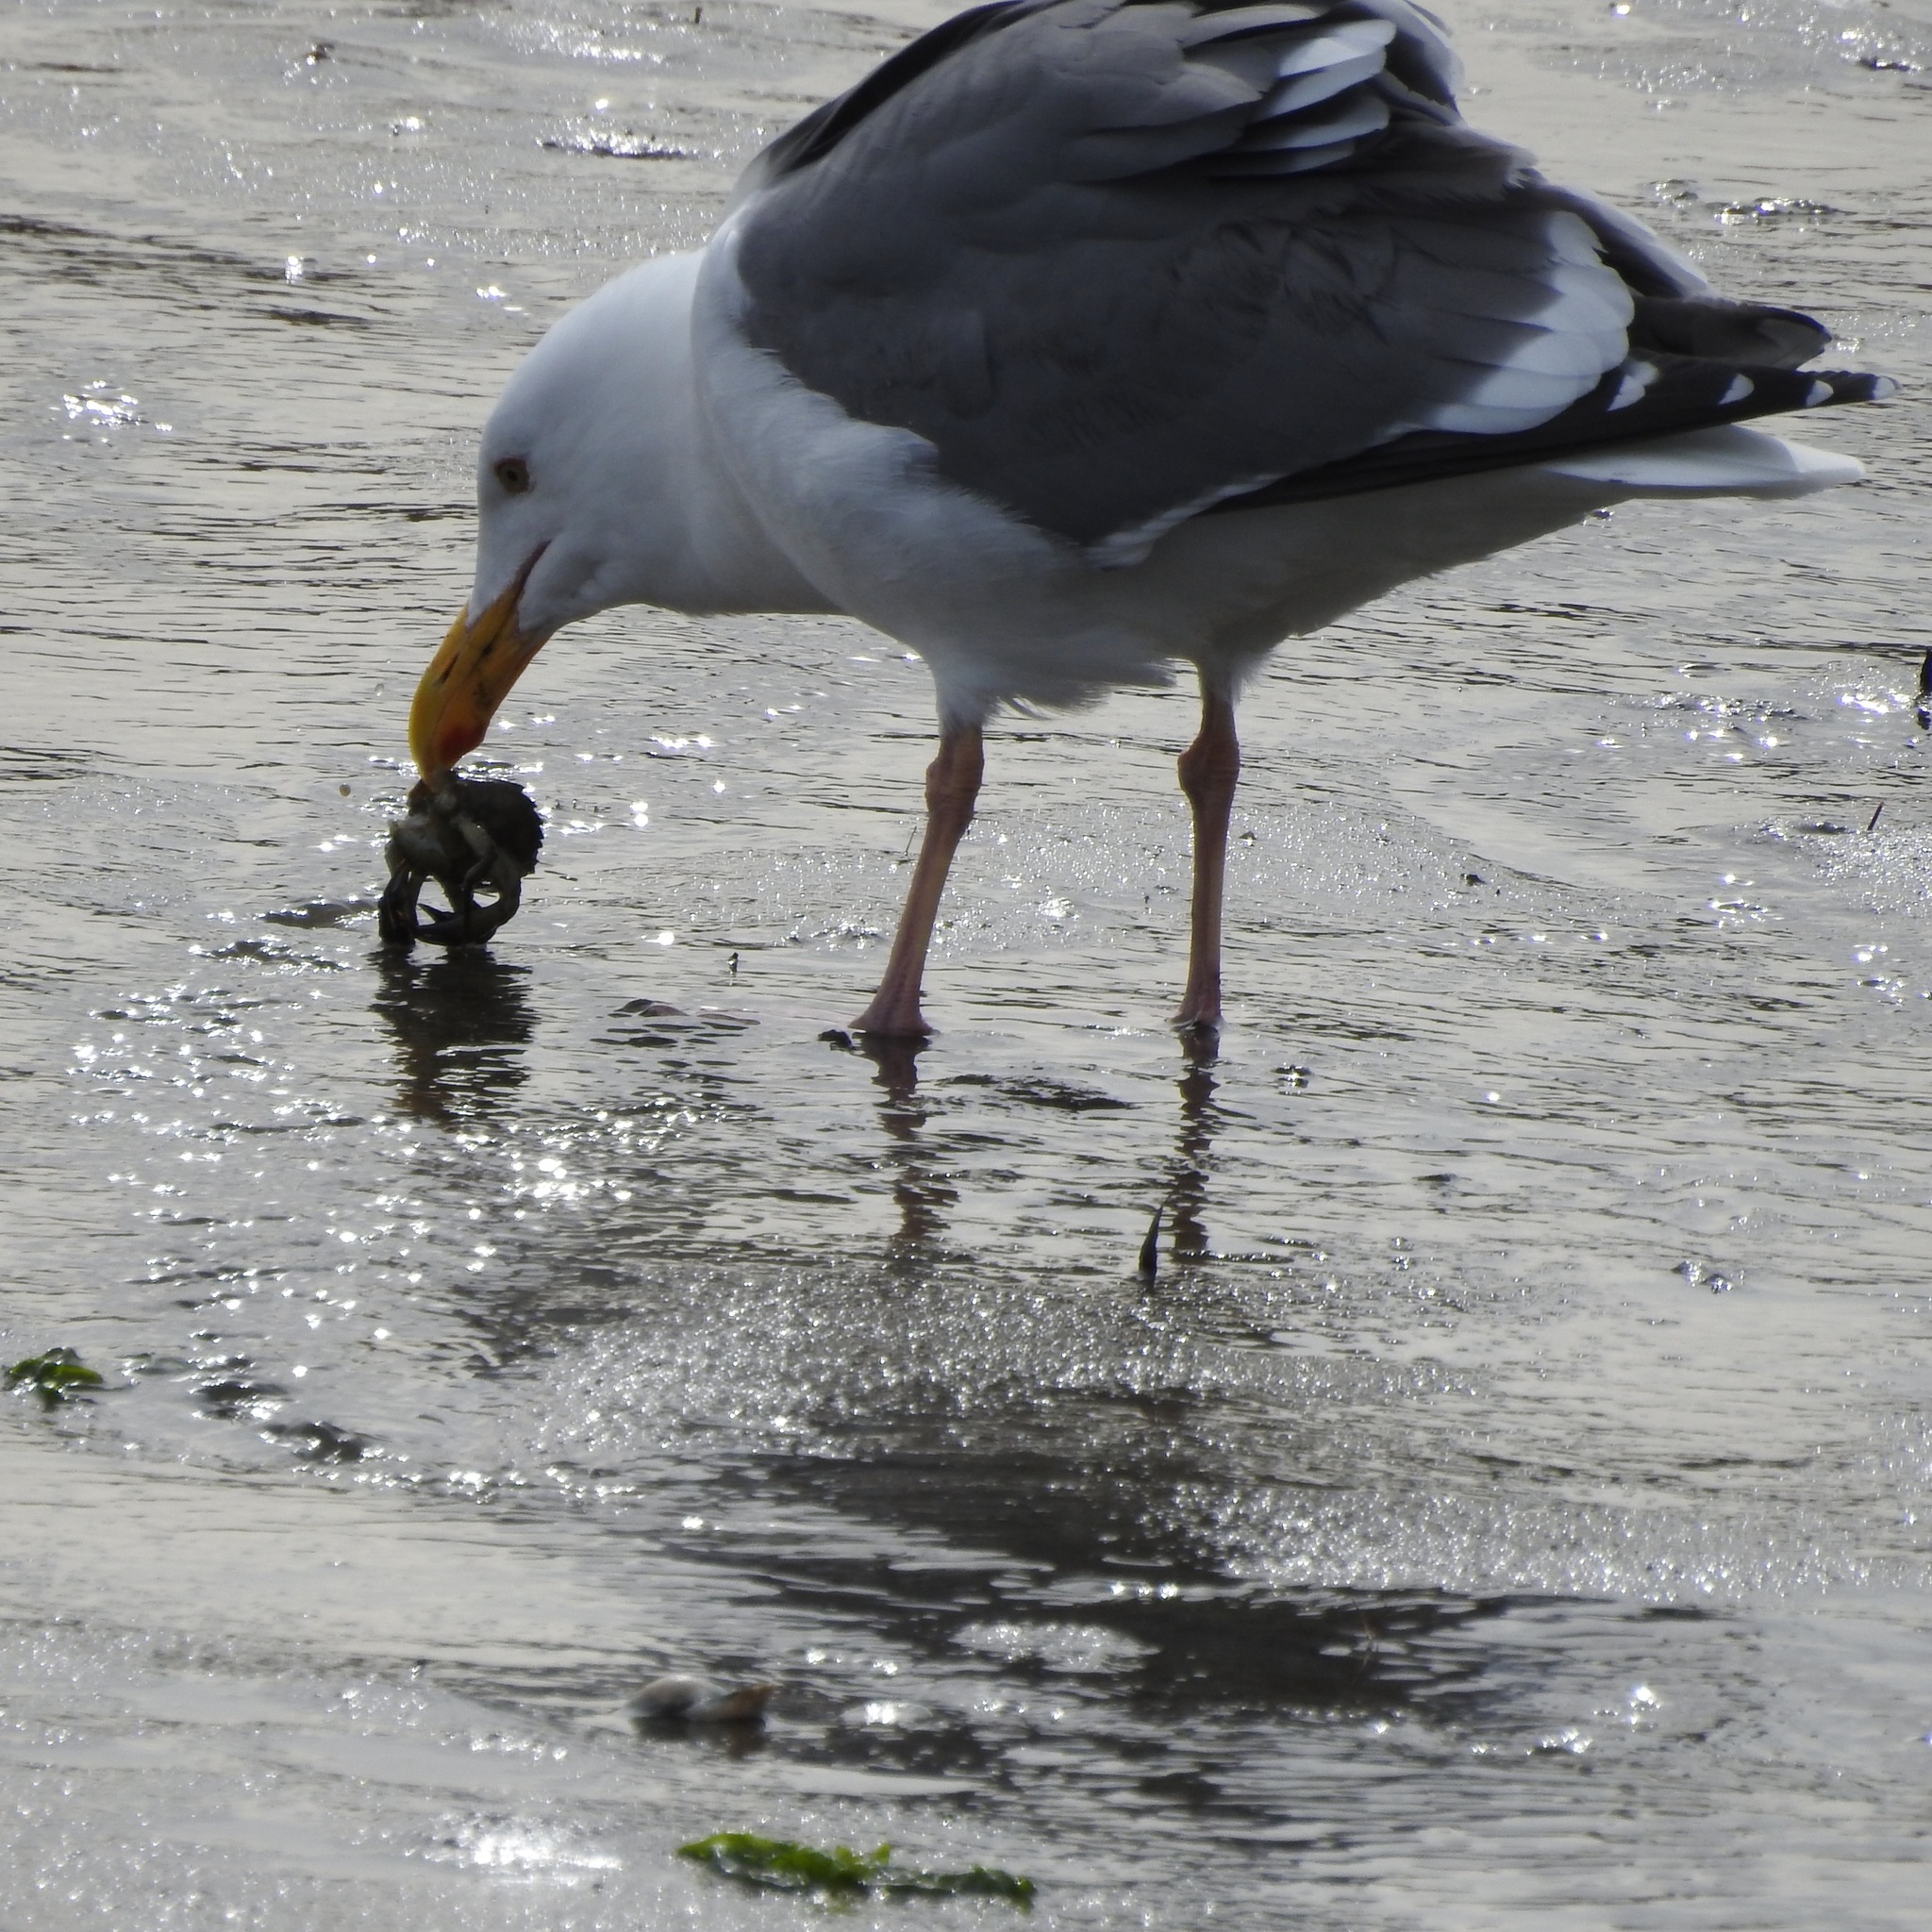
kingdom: Animalia
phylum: Chordata
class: Aves
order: Charadriiformes
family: Laridae
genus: Larus
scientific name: Larus occidentalis
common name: Western gull
